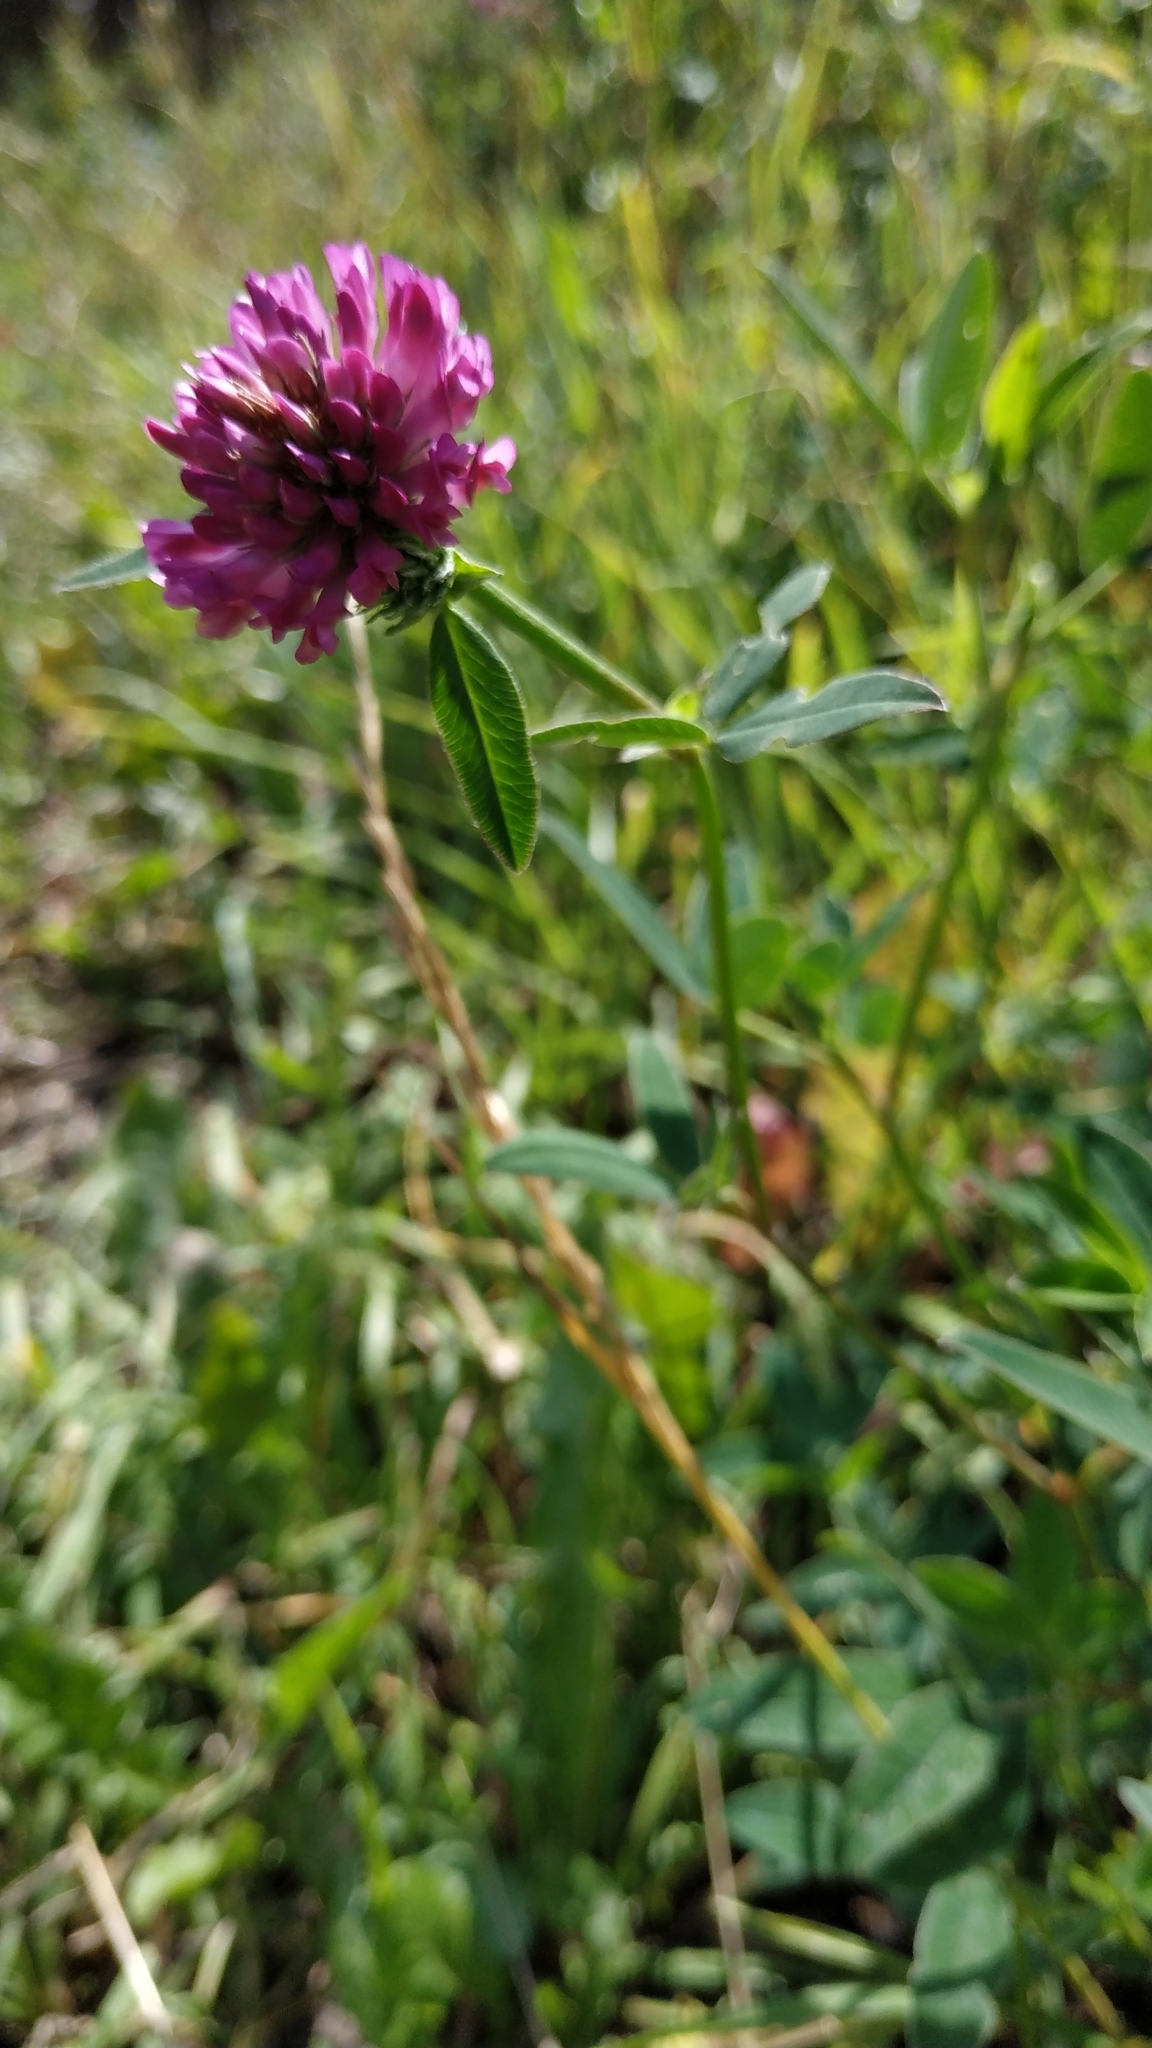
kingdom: Plantae
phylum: Tracheophyta
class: Magnoliopsida
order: Fabales
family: Fabaceae
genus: Trifolium
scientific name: Trifolium medium
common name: Zigzag clover
